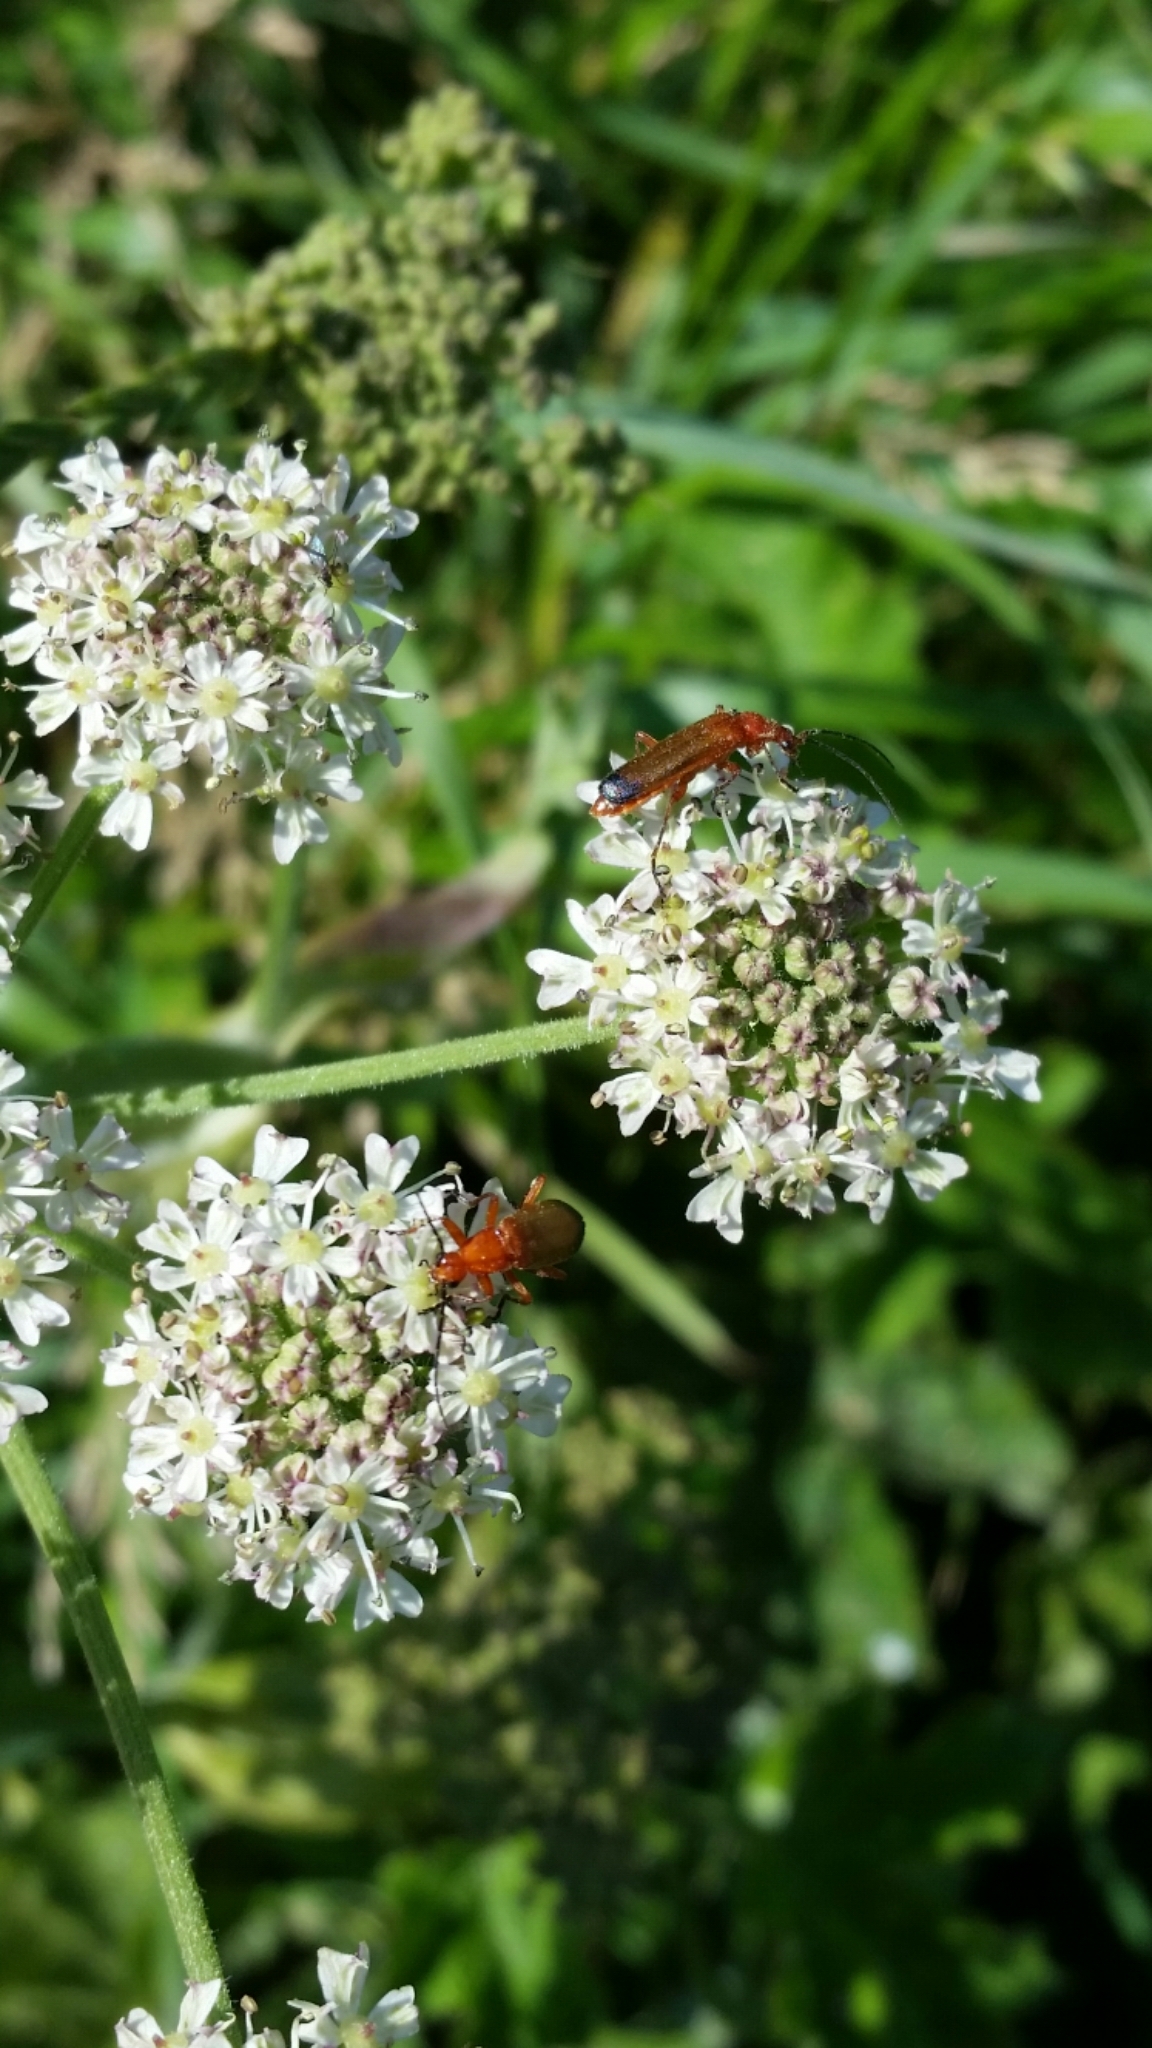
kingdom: Animalia
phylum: Arthropoda
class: Insecta
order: Coleoptera
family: Cantharidae
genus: Rhagonycha
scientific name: Rhagonycha fulva
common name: Common red soldier beetle
